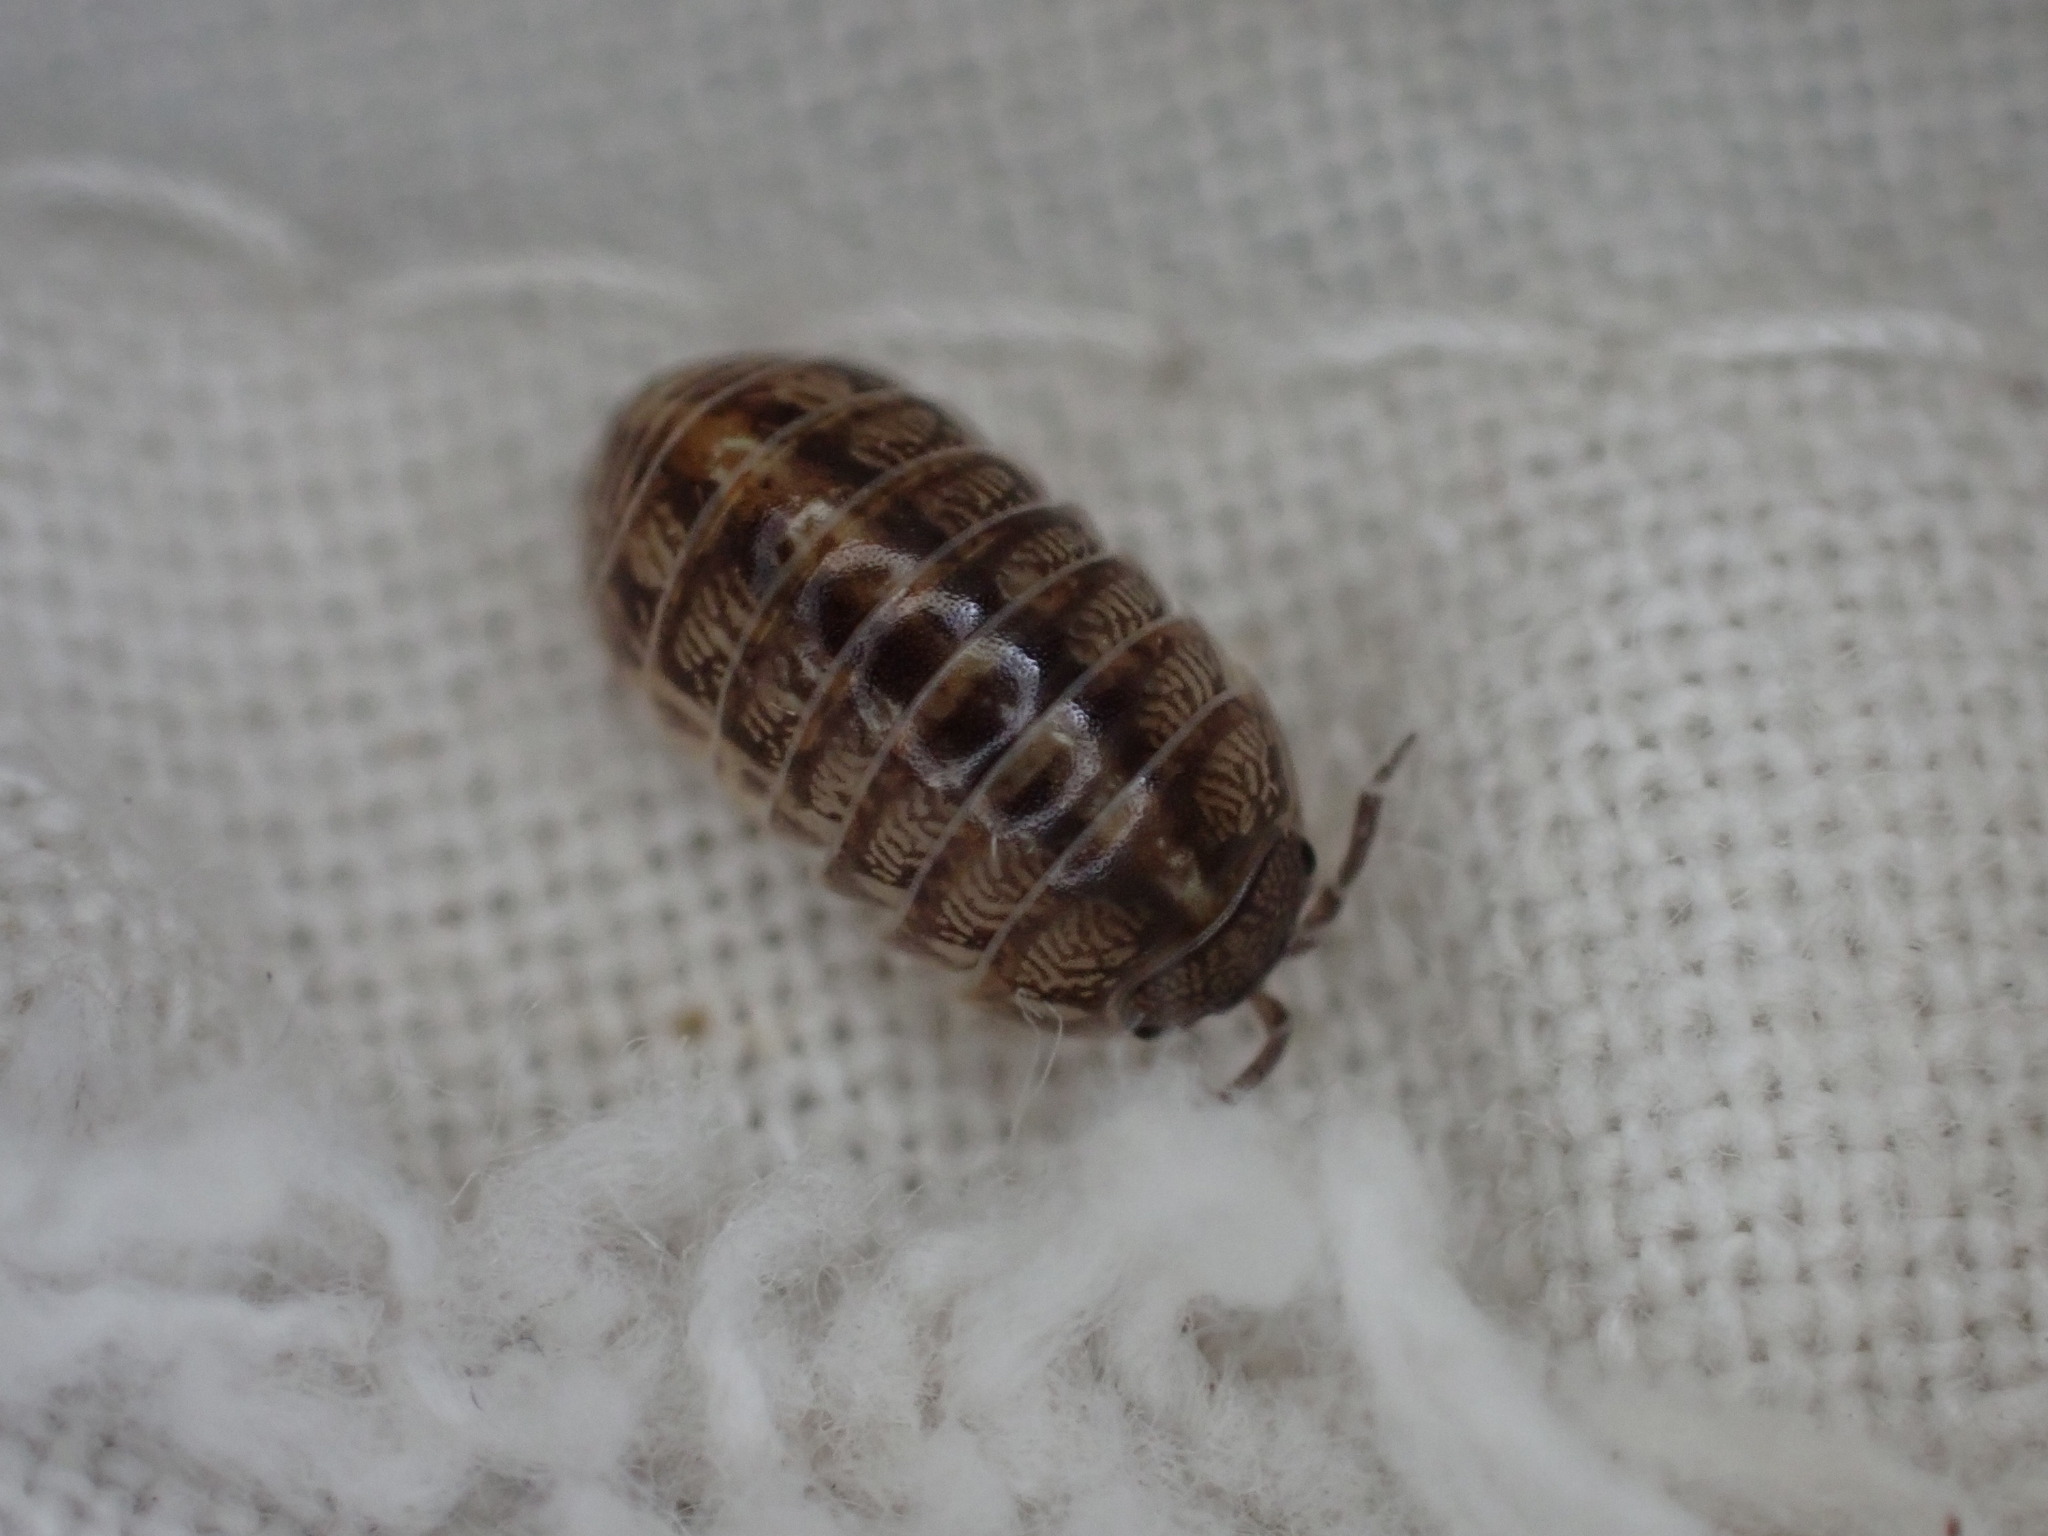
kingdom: Animalia
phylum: Arthropoda
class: Malacostraca
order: Isopoda
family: Armadillidiidae
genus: Armadillidium
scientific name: Armadillidium vulgare
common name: Common pill woodlouse
